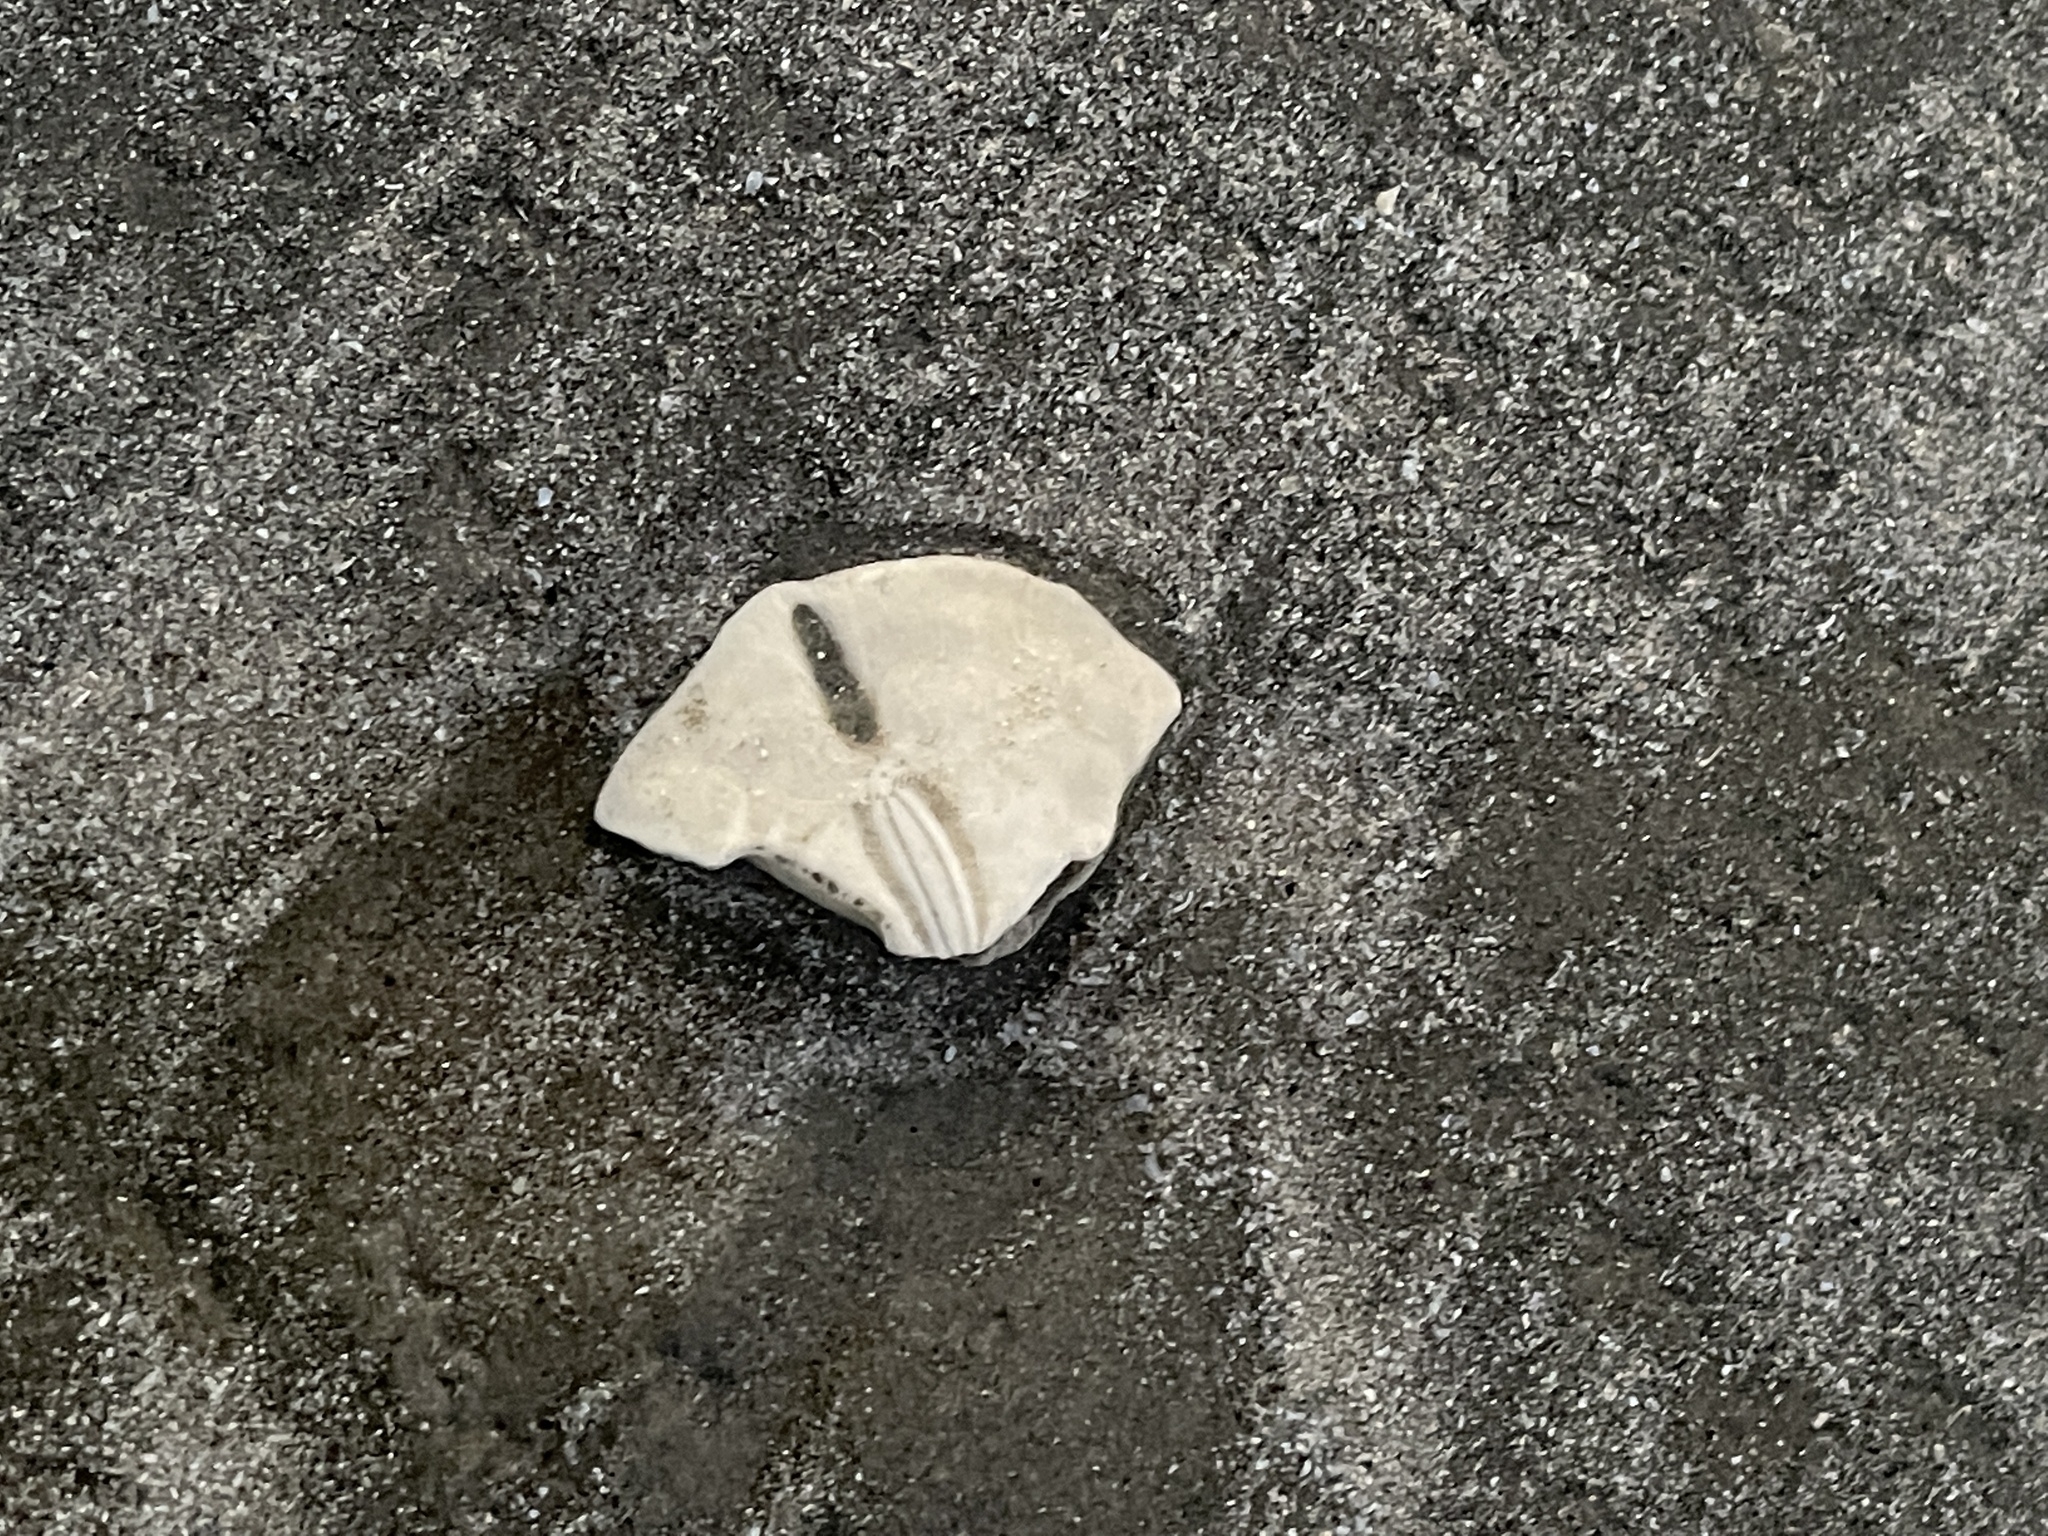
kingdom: Animalia
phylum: Echinodermata
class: Echinoidea
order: Echinolampadacea
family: Mellitidae
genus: Mellita
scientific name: Mellita quinquiesperforata
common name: Sand dollar
